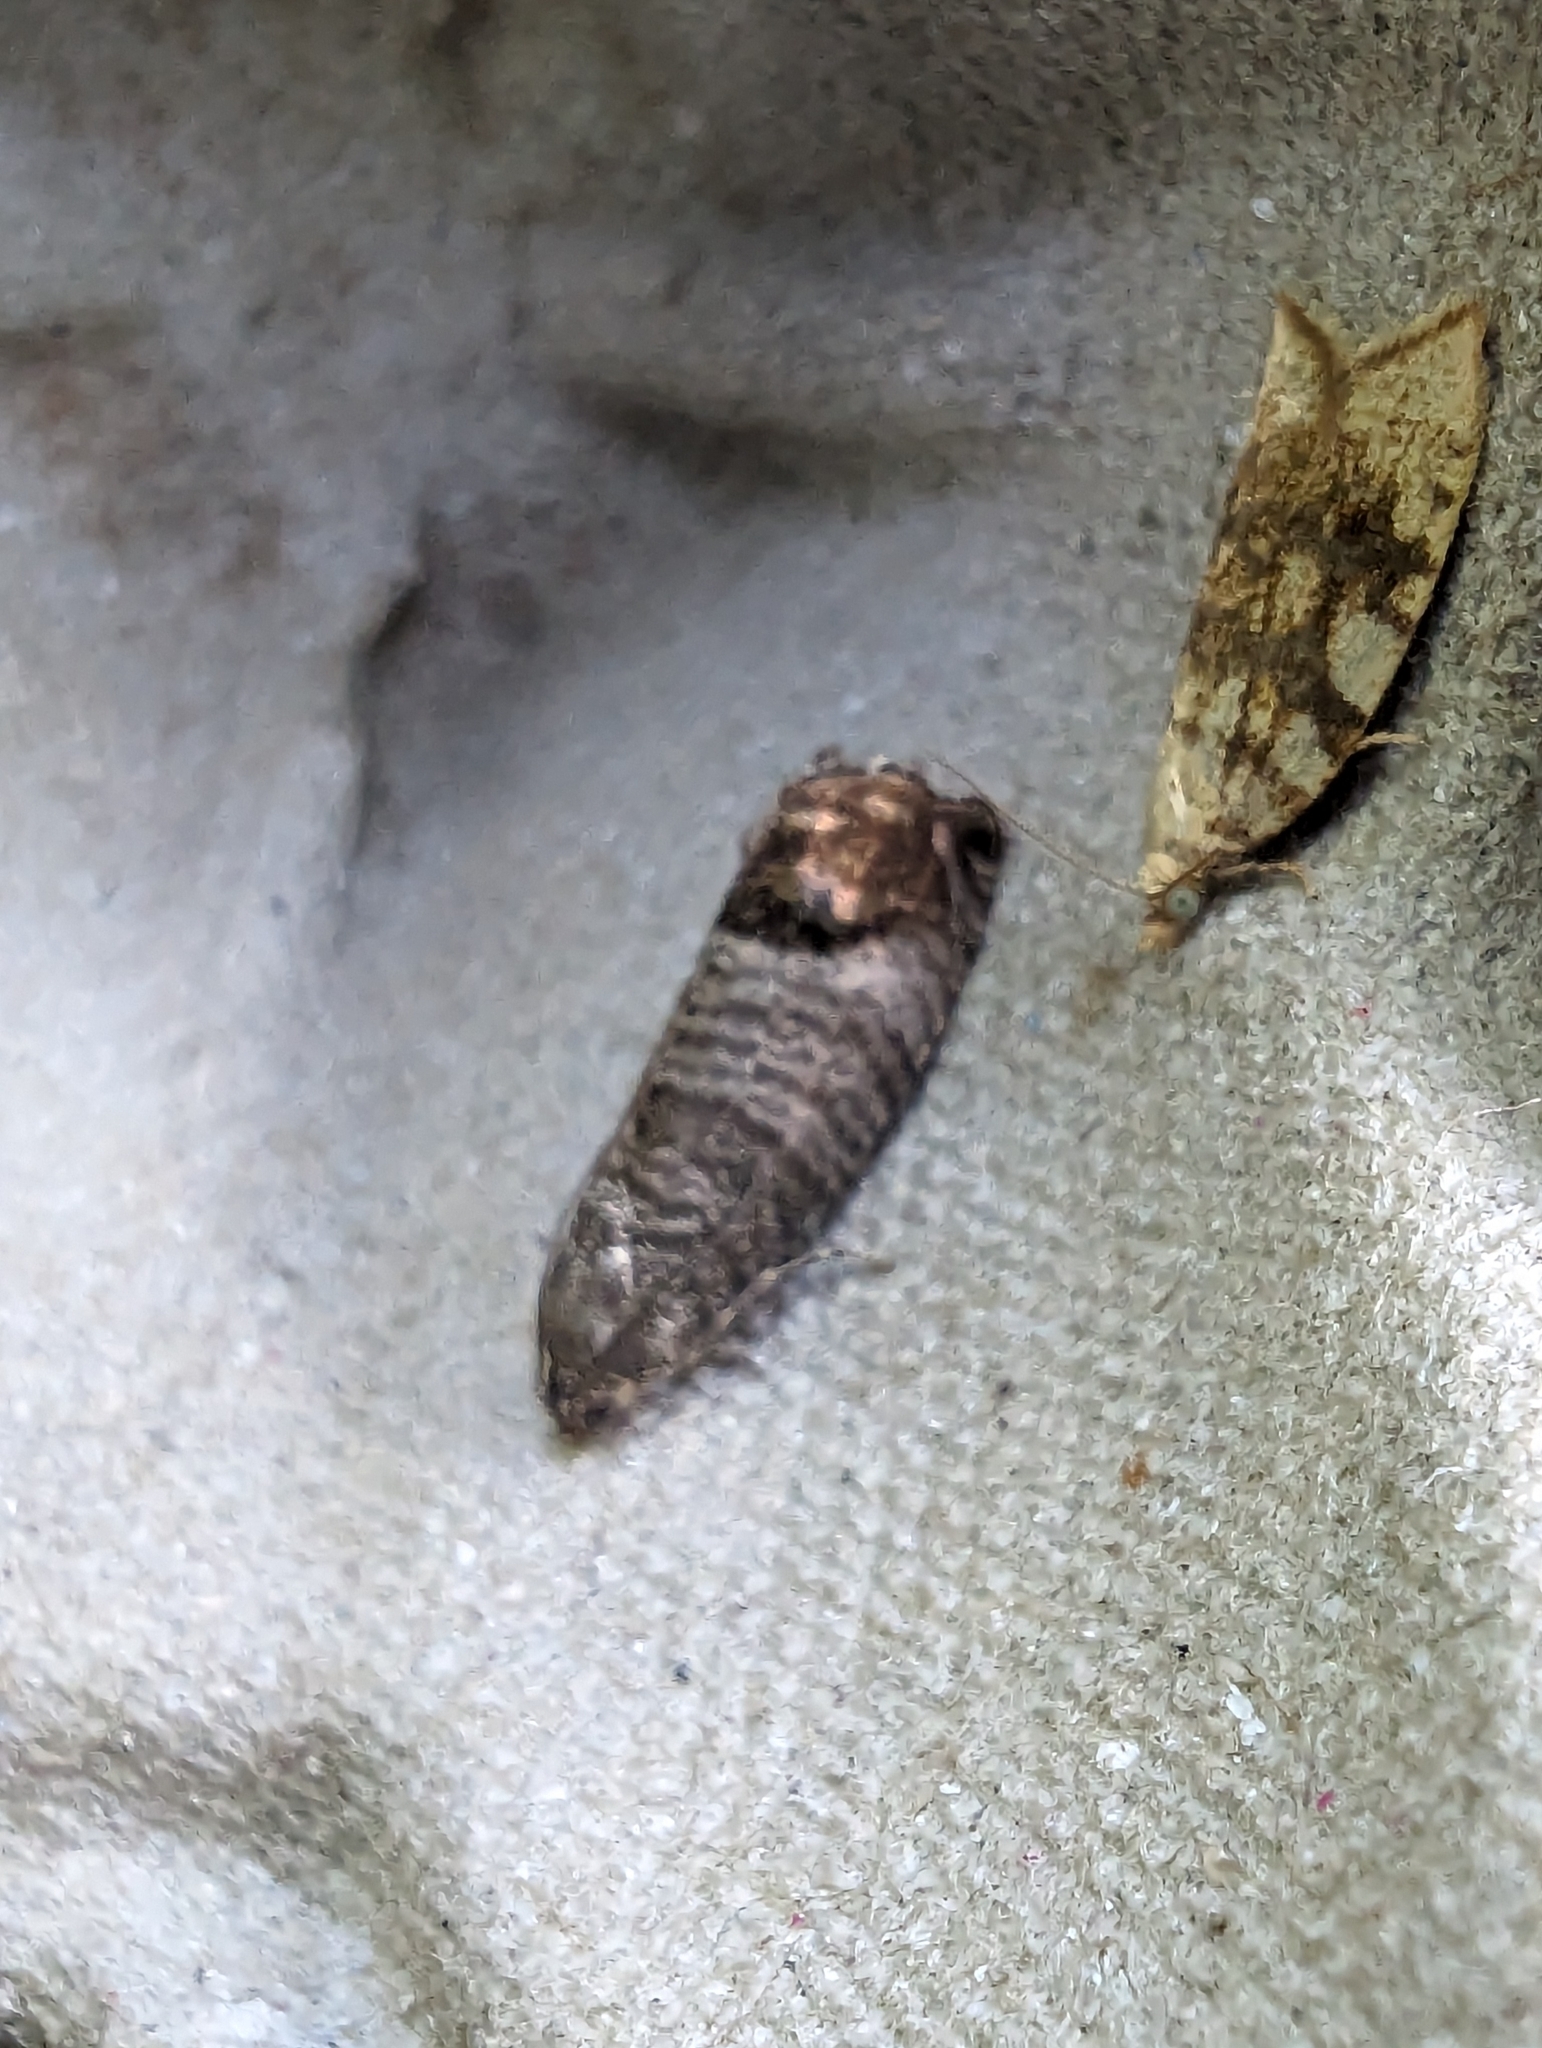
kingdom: Animalia
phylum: Arthropoda
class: Insecta
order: Lepidoptera
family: Tortricidae
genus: Cydia
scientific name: Cydia pomonella
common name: Codling moth
